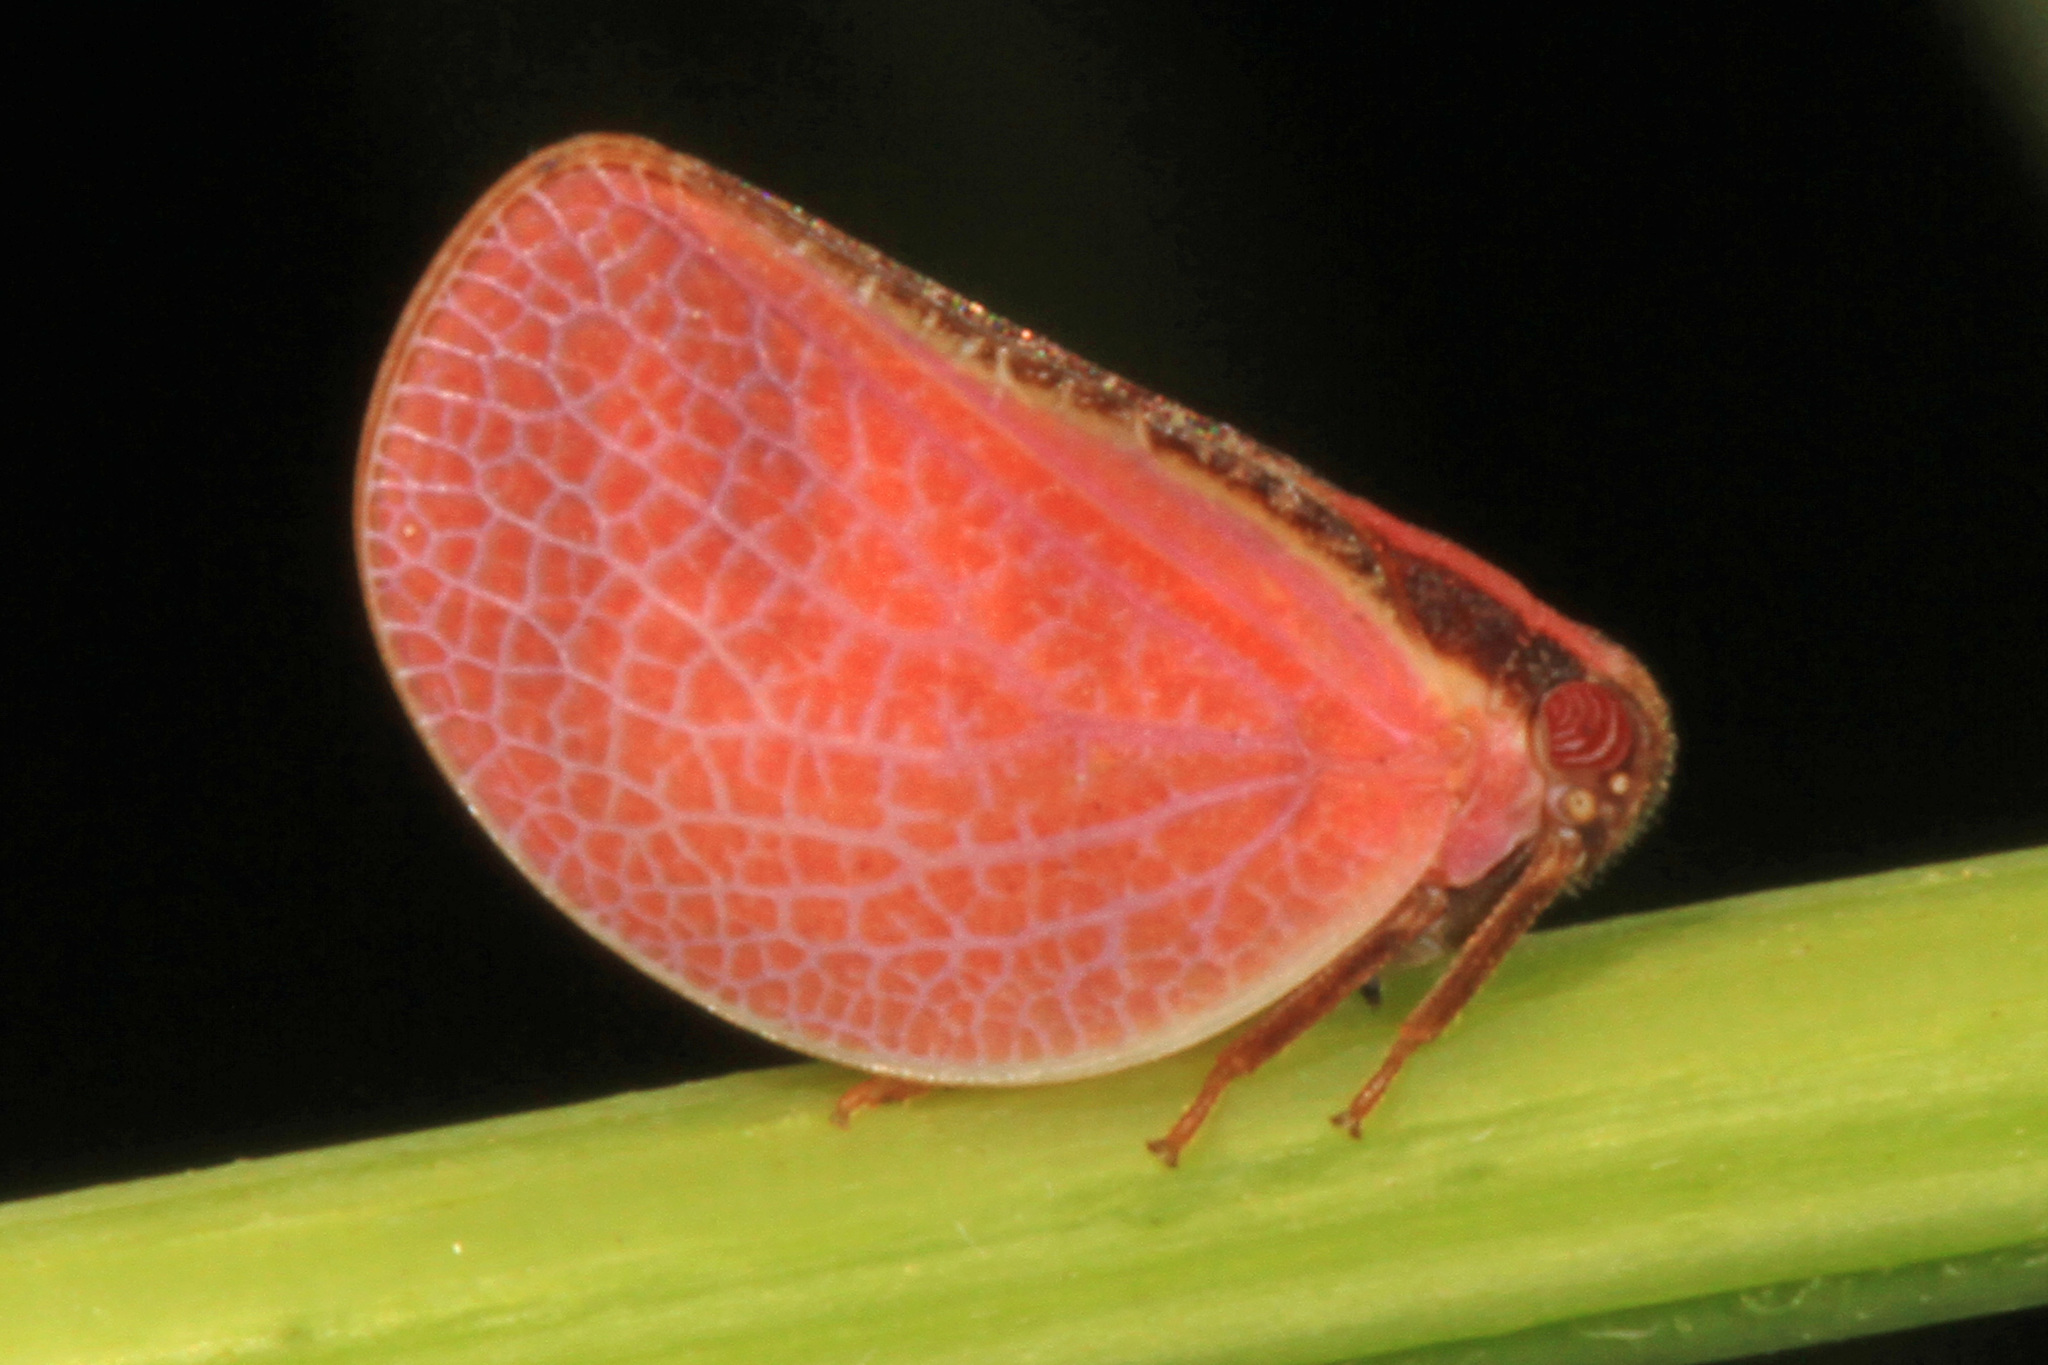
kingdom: Animalia
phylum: Arthropoda
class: Insecta
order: Hemiptera
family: Acanaloniidae
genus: Acanalonia
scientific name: Acanalonia bivittata
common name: Two-striped planthopper
